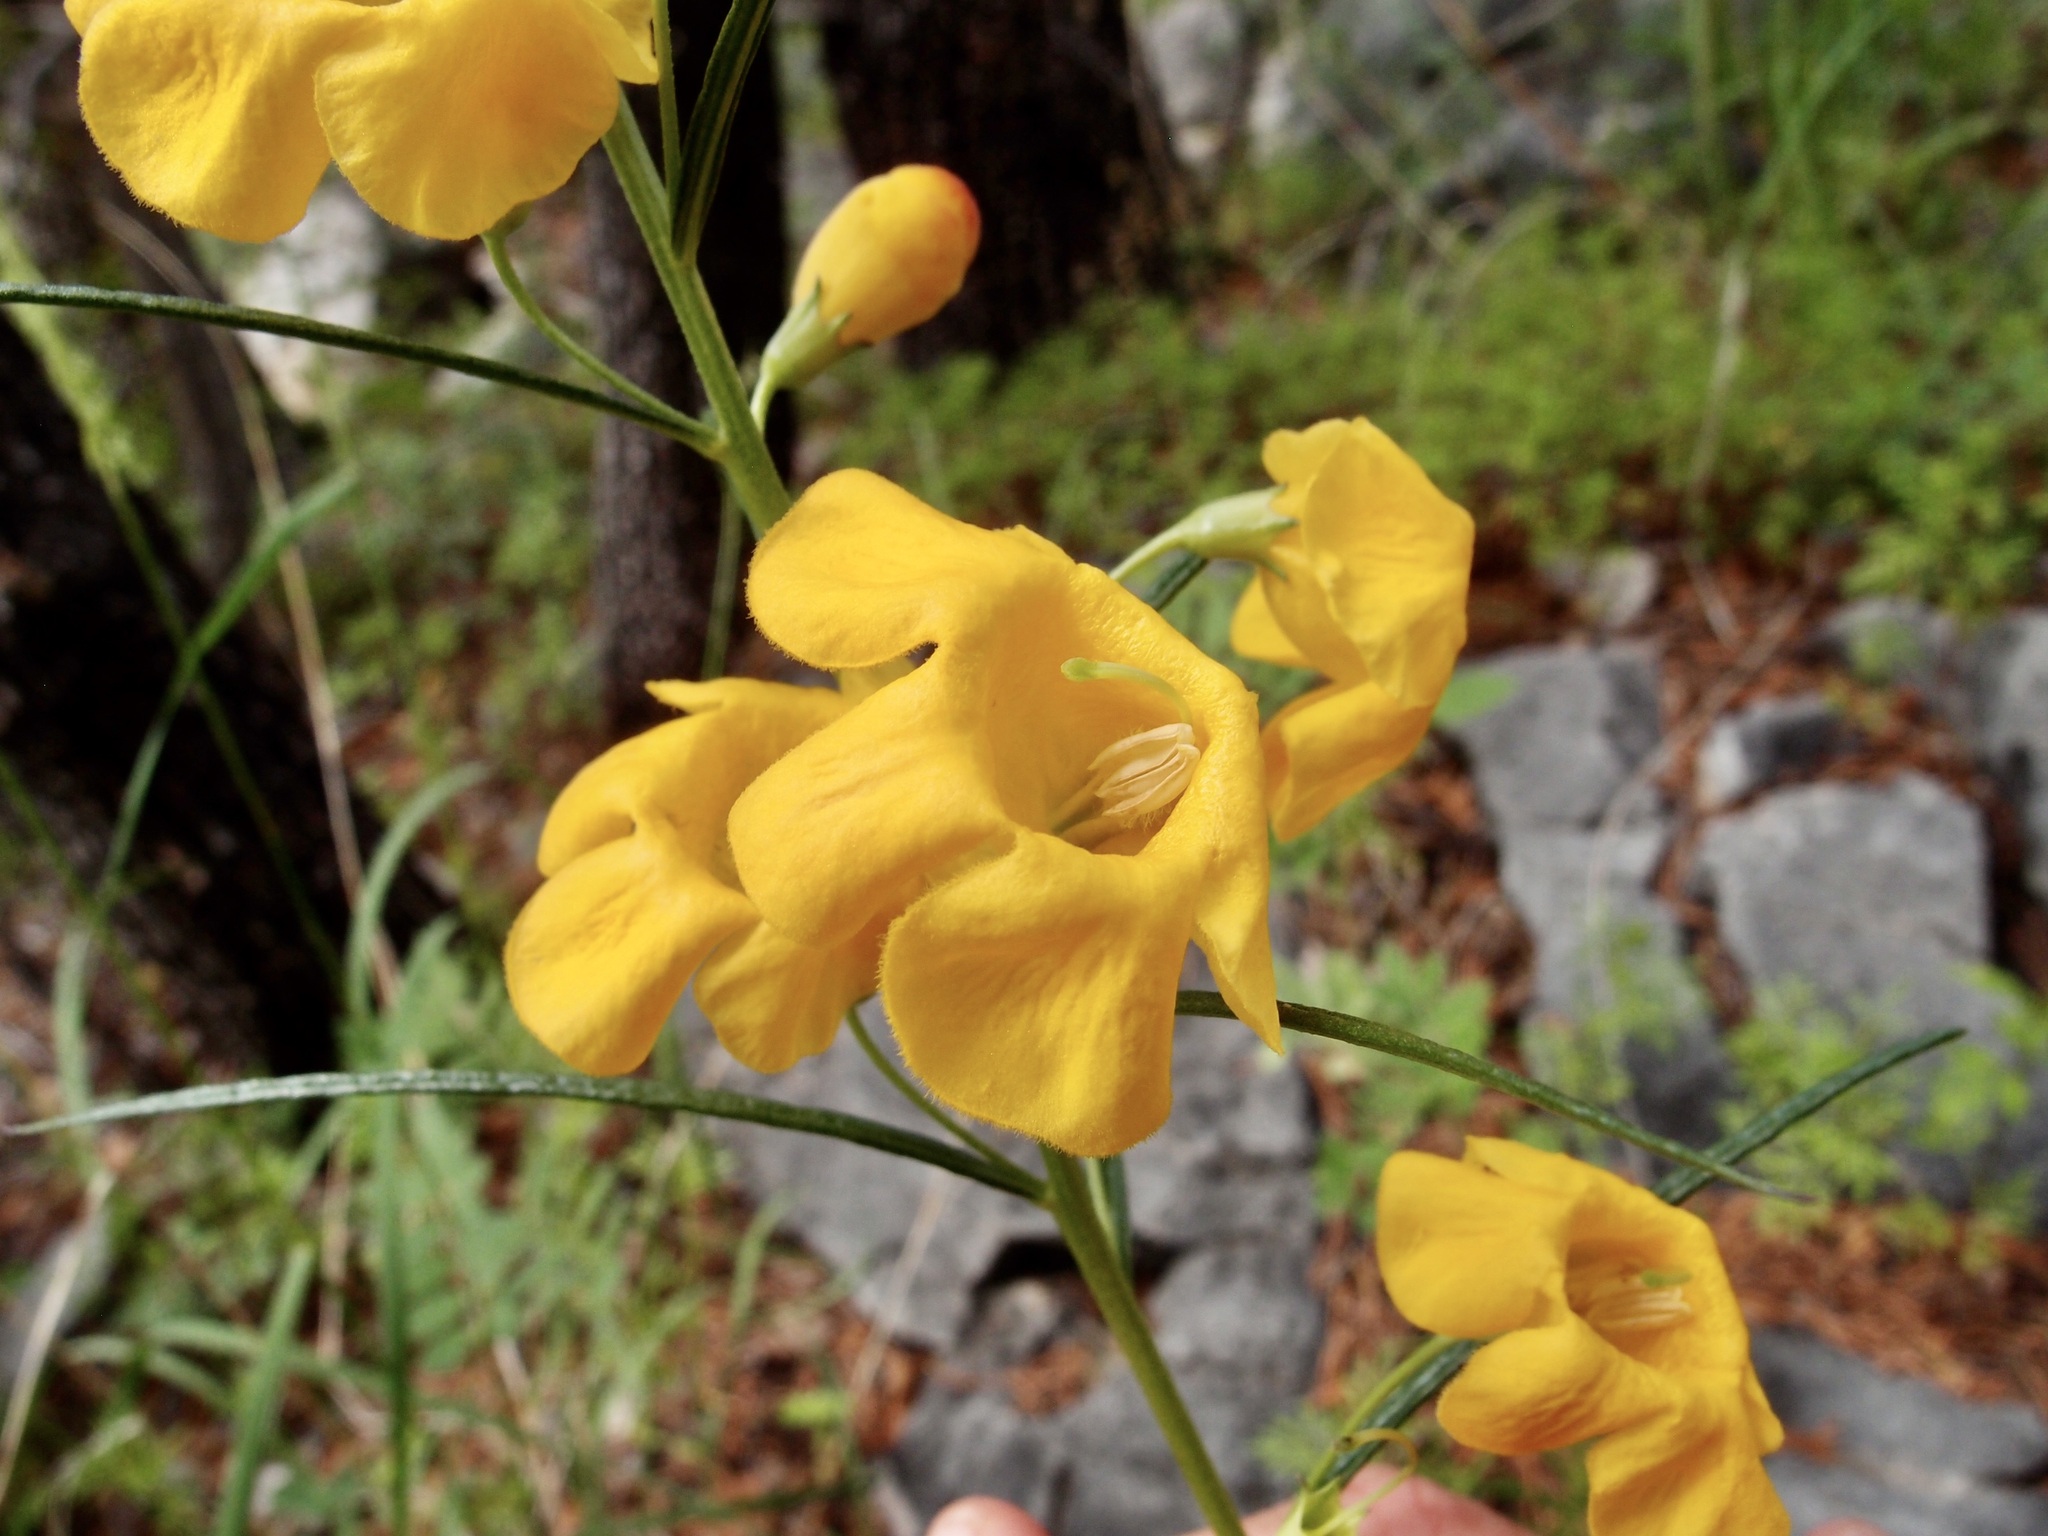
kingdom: Plantae
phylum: Tracheophyta
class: Magnoliopsida
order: Lamiales
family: Orobanchaceae
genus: Brachystigma
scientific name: Brachystigma wrightii
